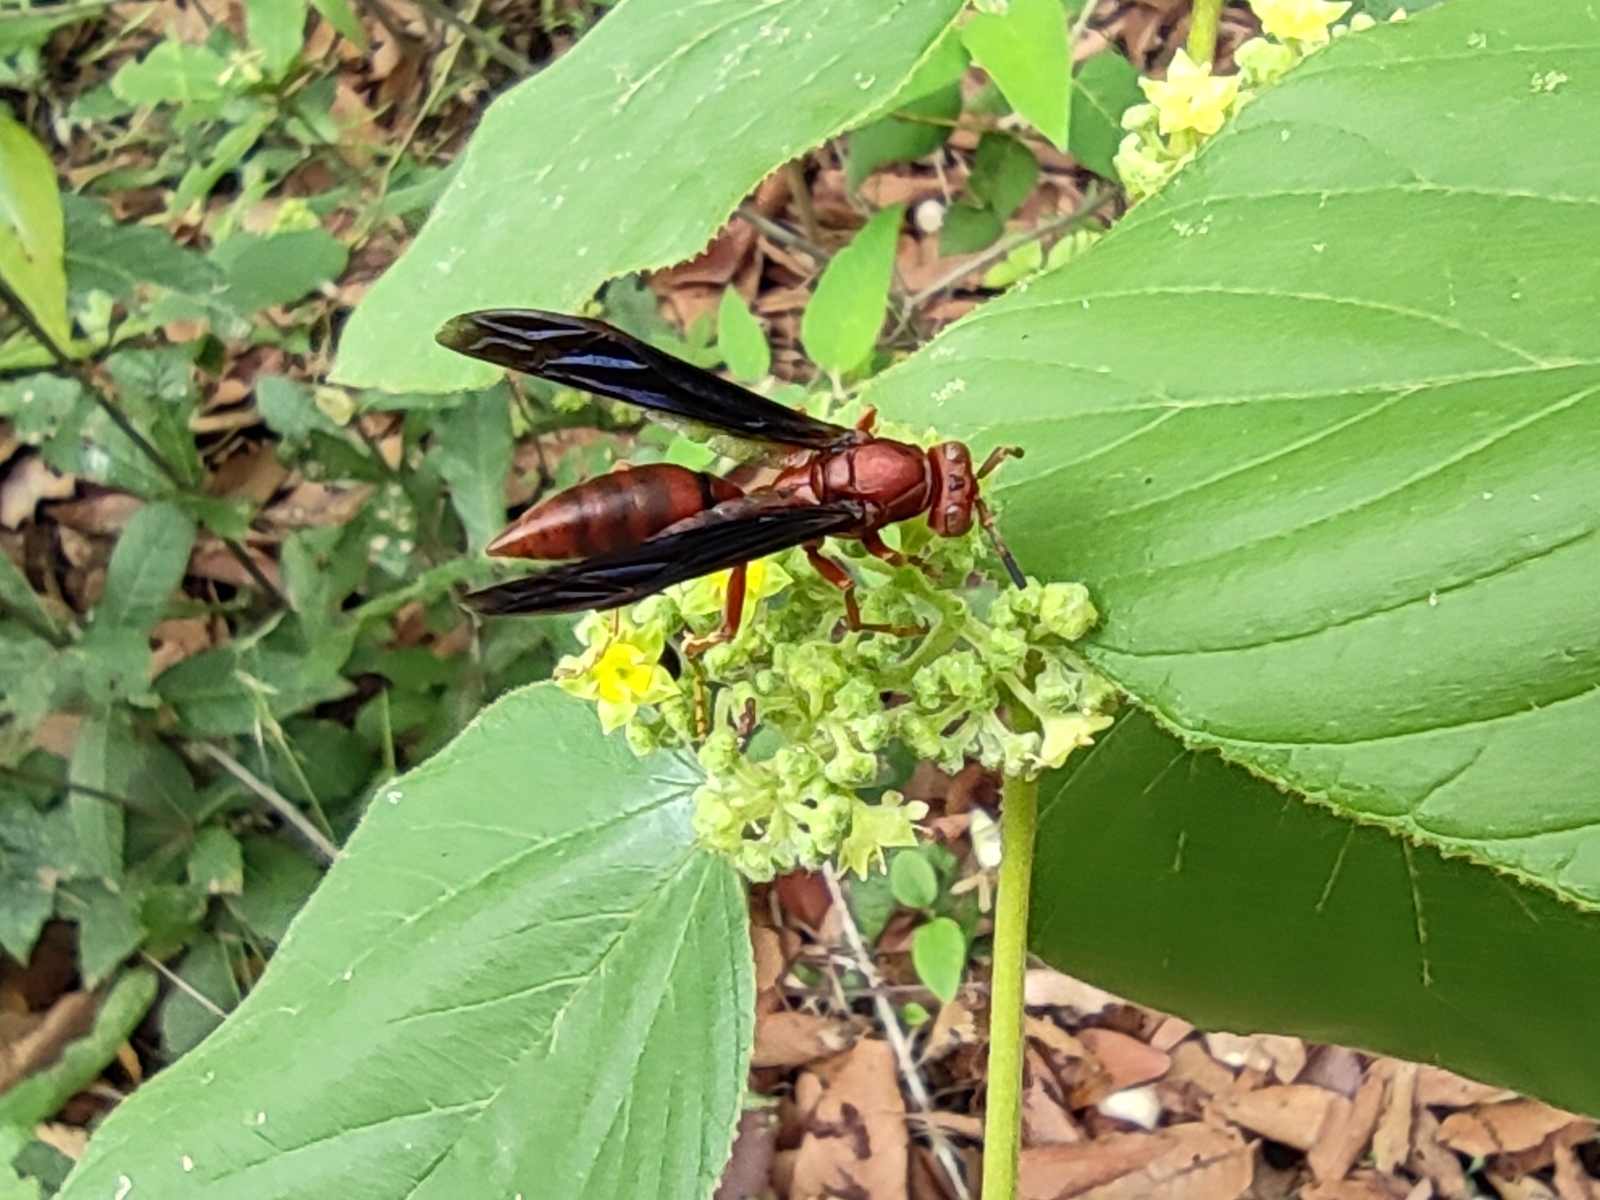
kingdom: Animalia
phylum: Arthropoda
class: Insecta
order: Hymenoptera
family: Eumenidae
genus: Polistes
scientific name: Polistes canadensis
